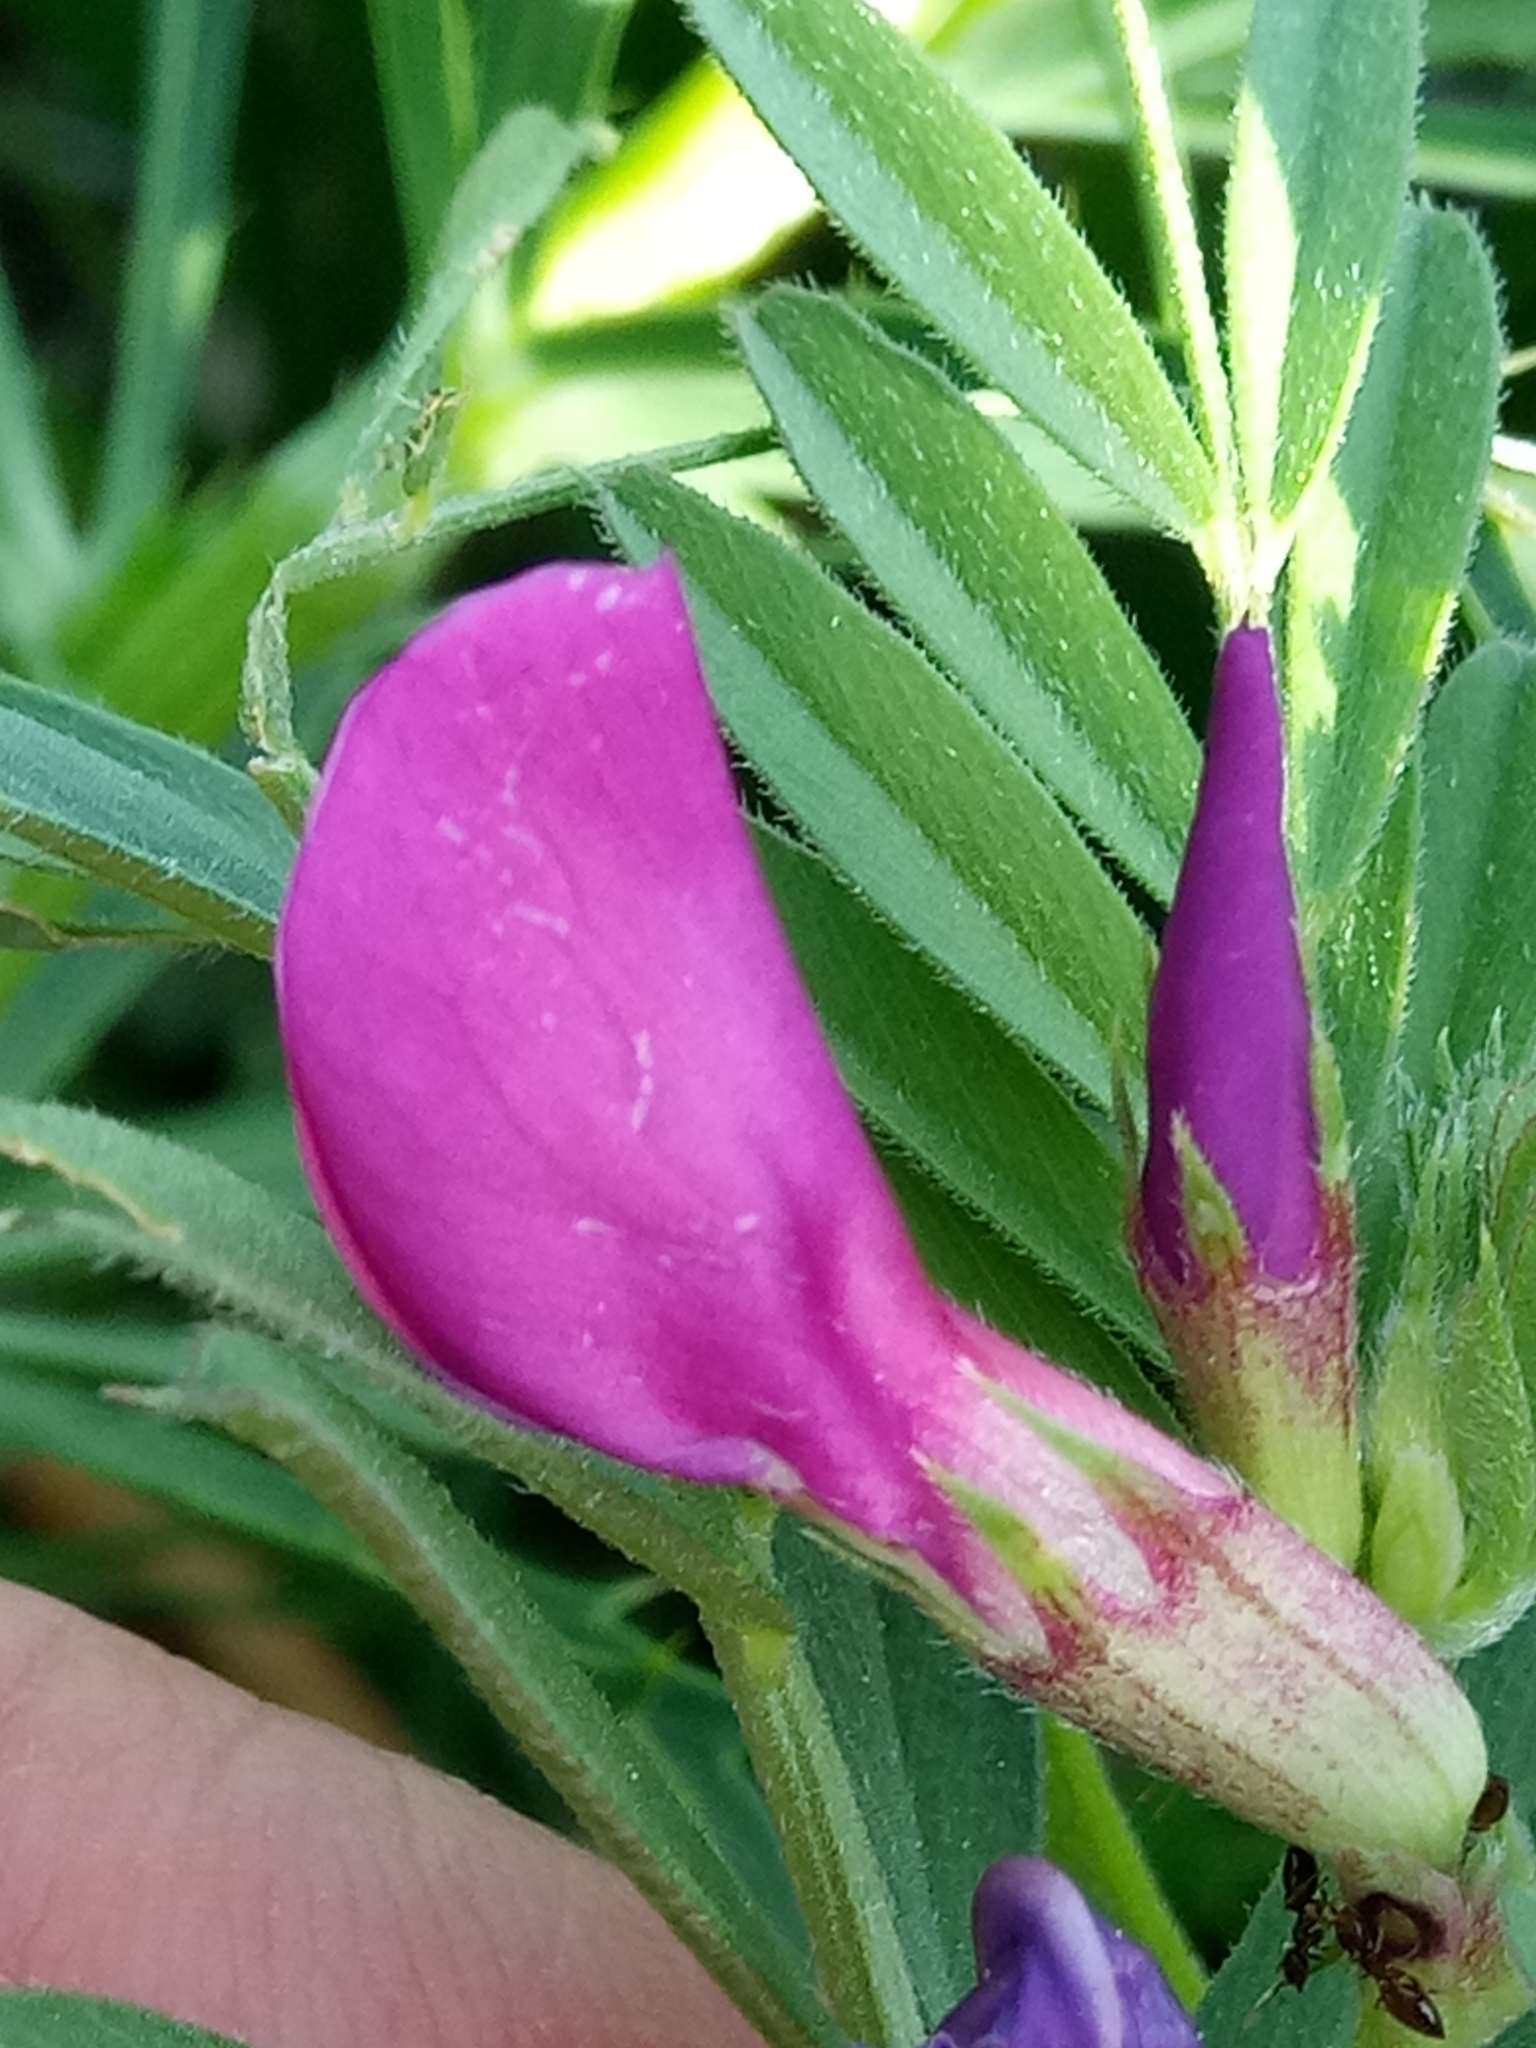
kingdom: Plantae
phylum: Tracheophyta
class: Magnoliopsida
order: Fabales
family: Fabaceae
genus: Vicia
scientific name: Vicia sativa
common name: Garden vetch
